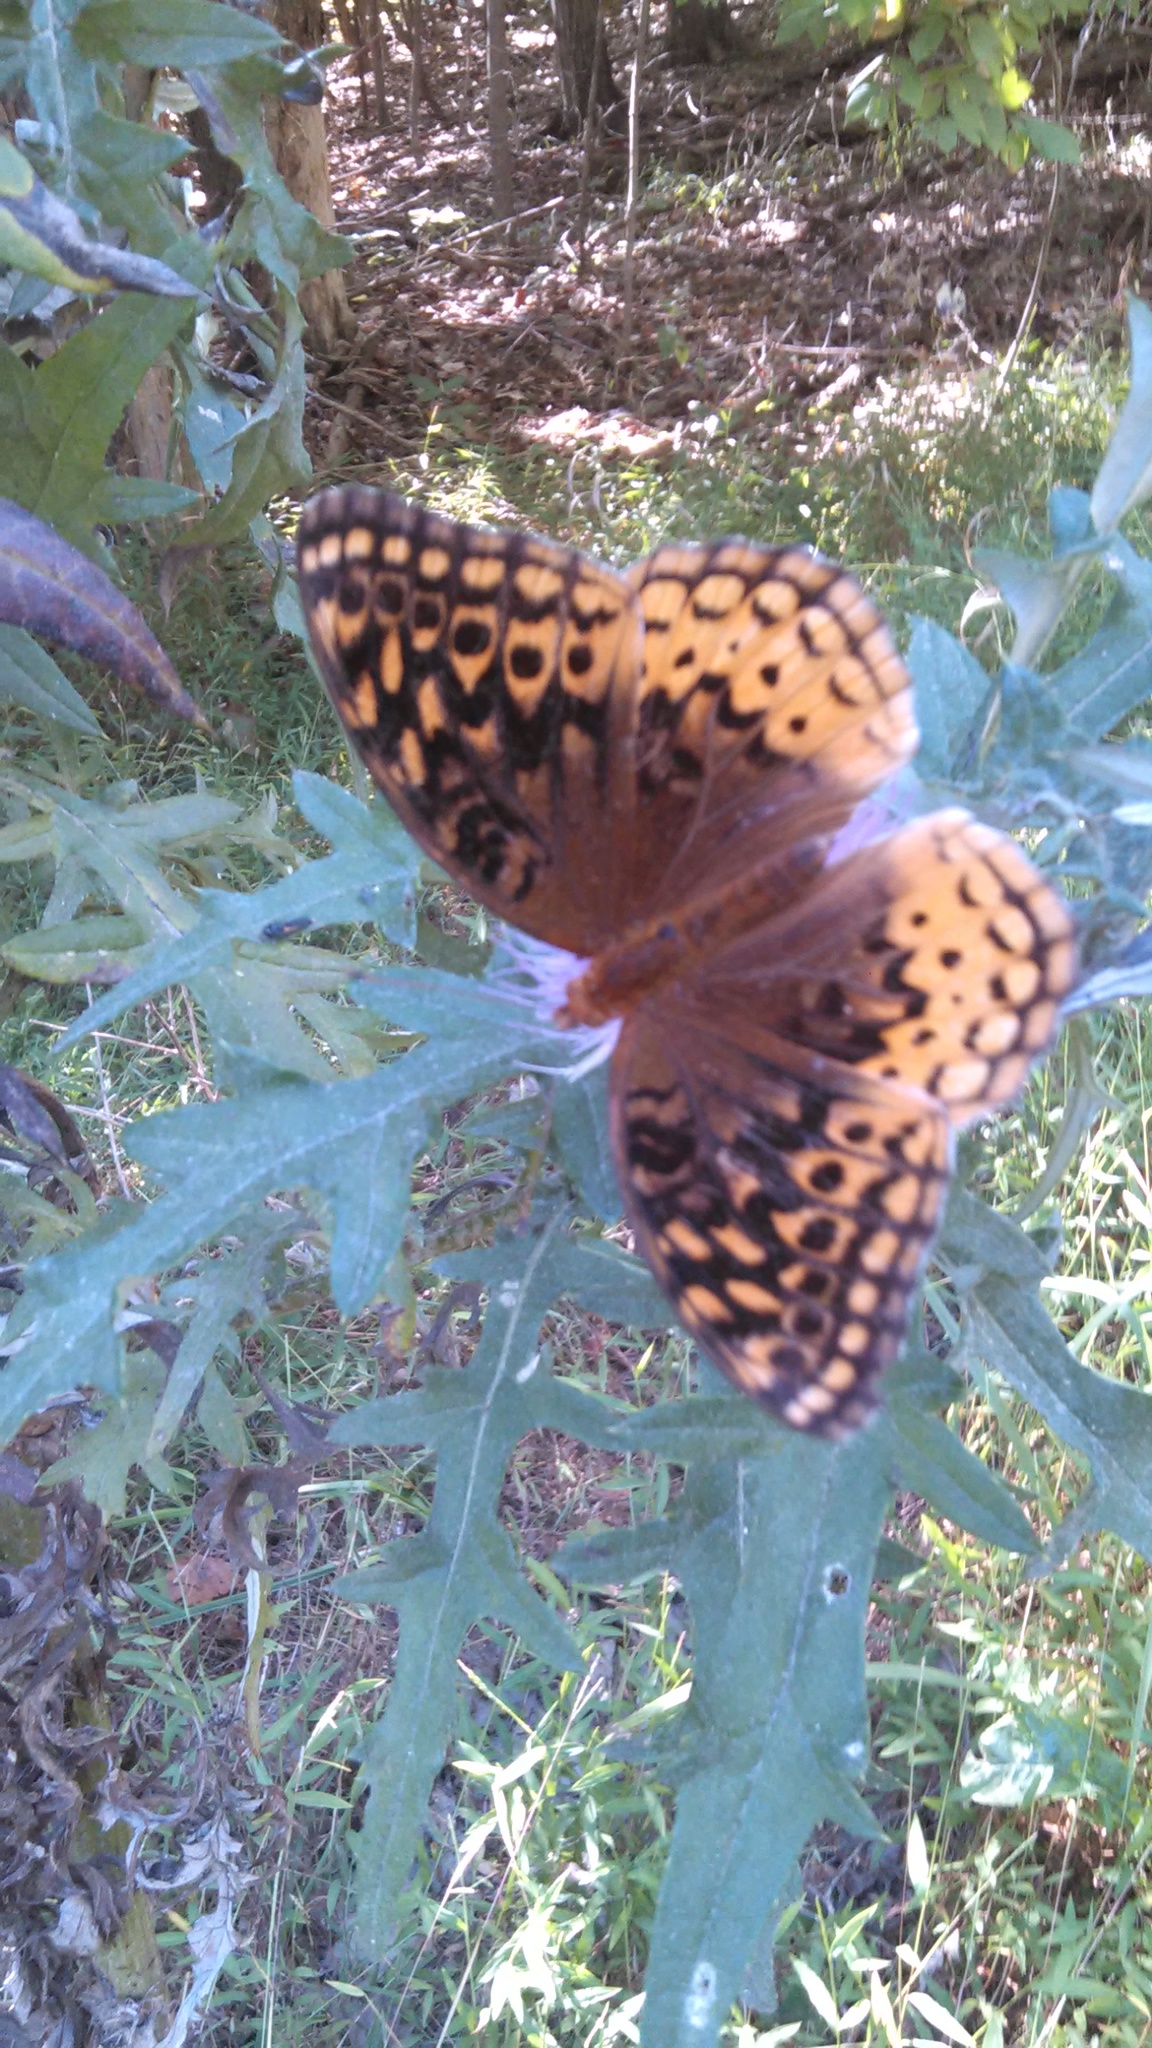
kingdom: Animalia
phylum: Arthropoda
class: Insecta
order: Lepidoptera
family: Nymphalidae
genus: Speyeria
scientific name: Speyeria cybele
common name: Great spangled fritillary
